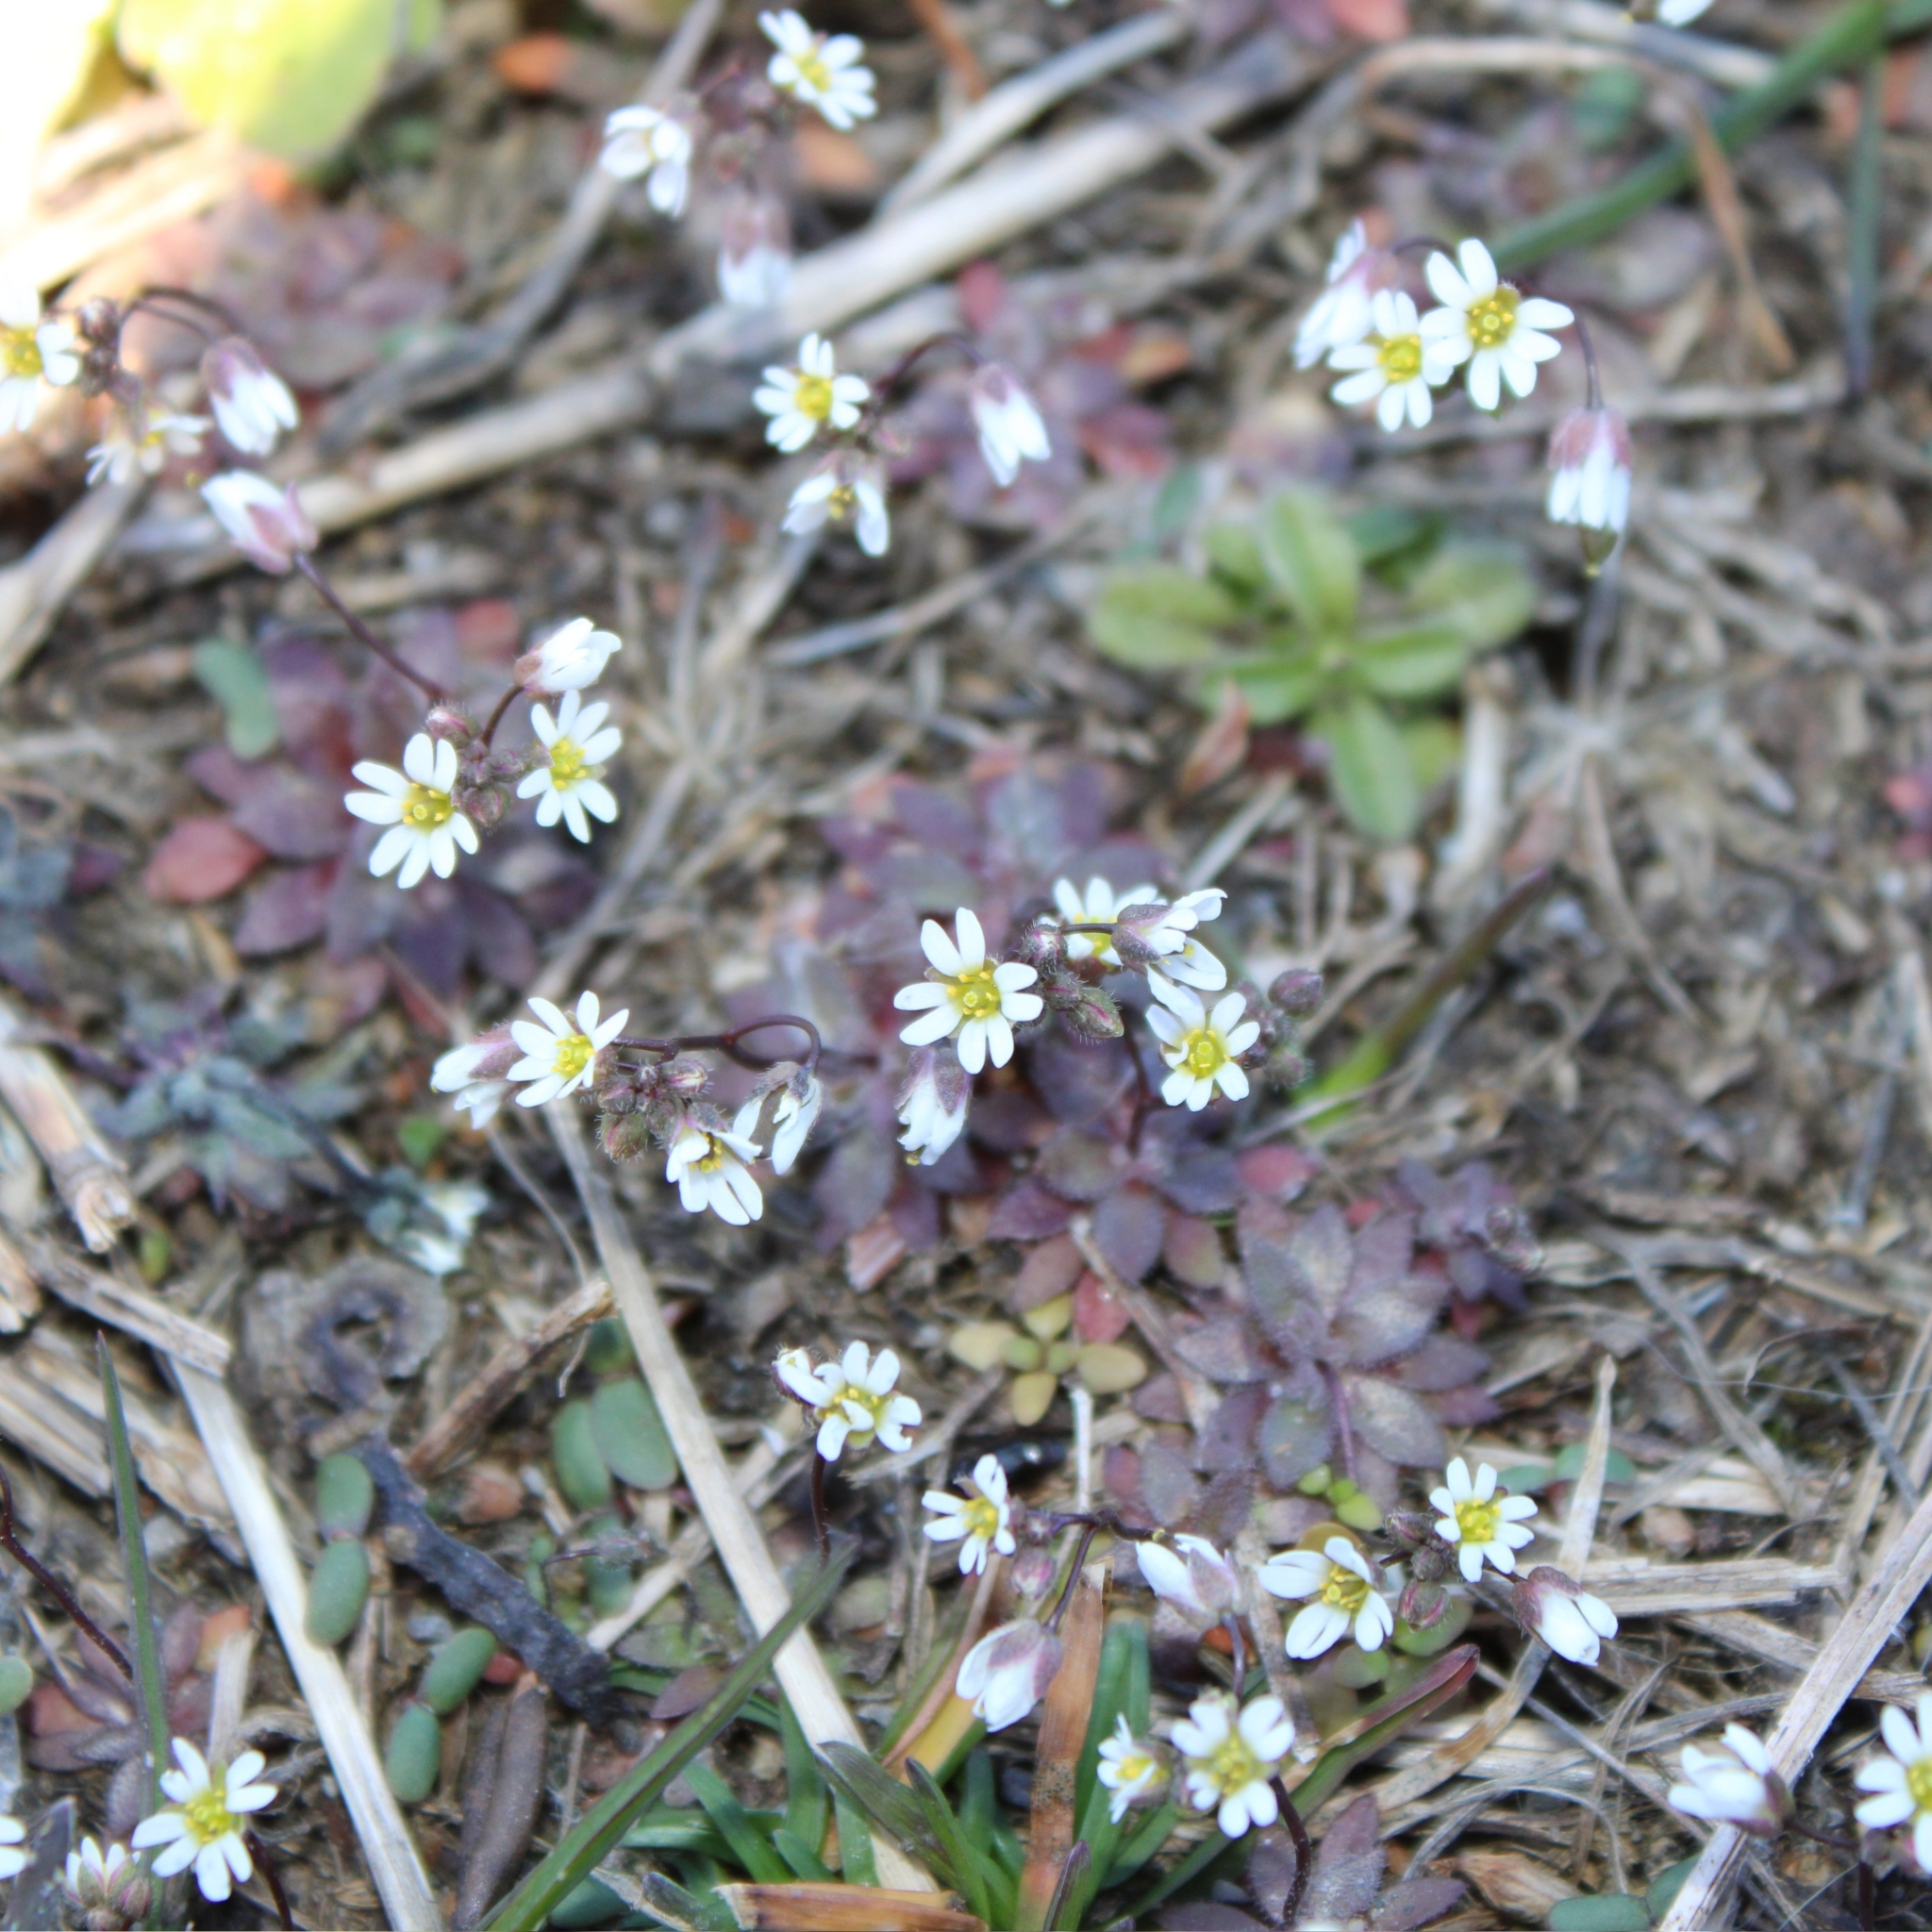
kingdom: Plantae
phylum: Tracheophyta
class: Magnoliopsida
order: Brassicales
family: Brassicaceae
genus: Draba
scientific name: Draba verna
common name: Spring draba
